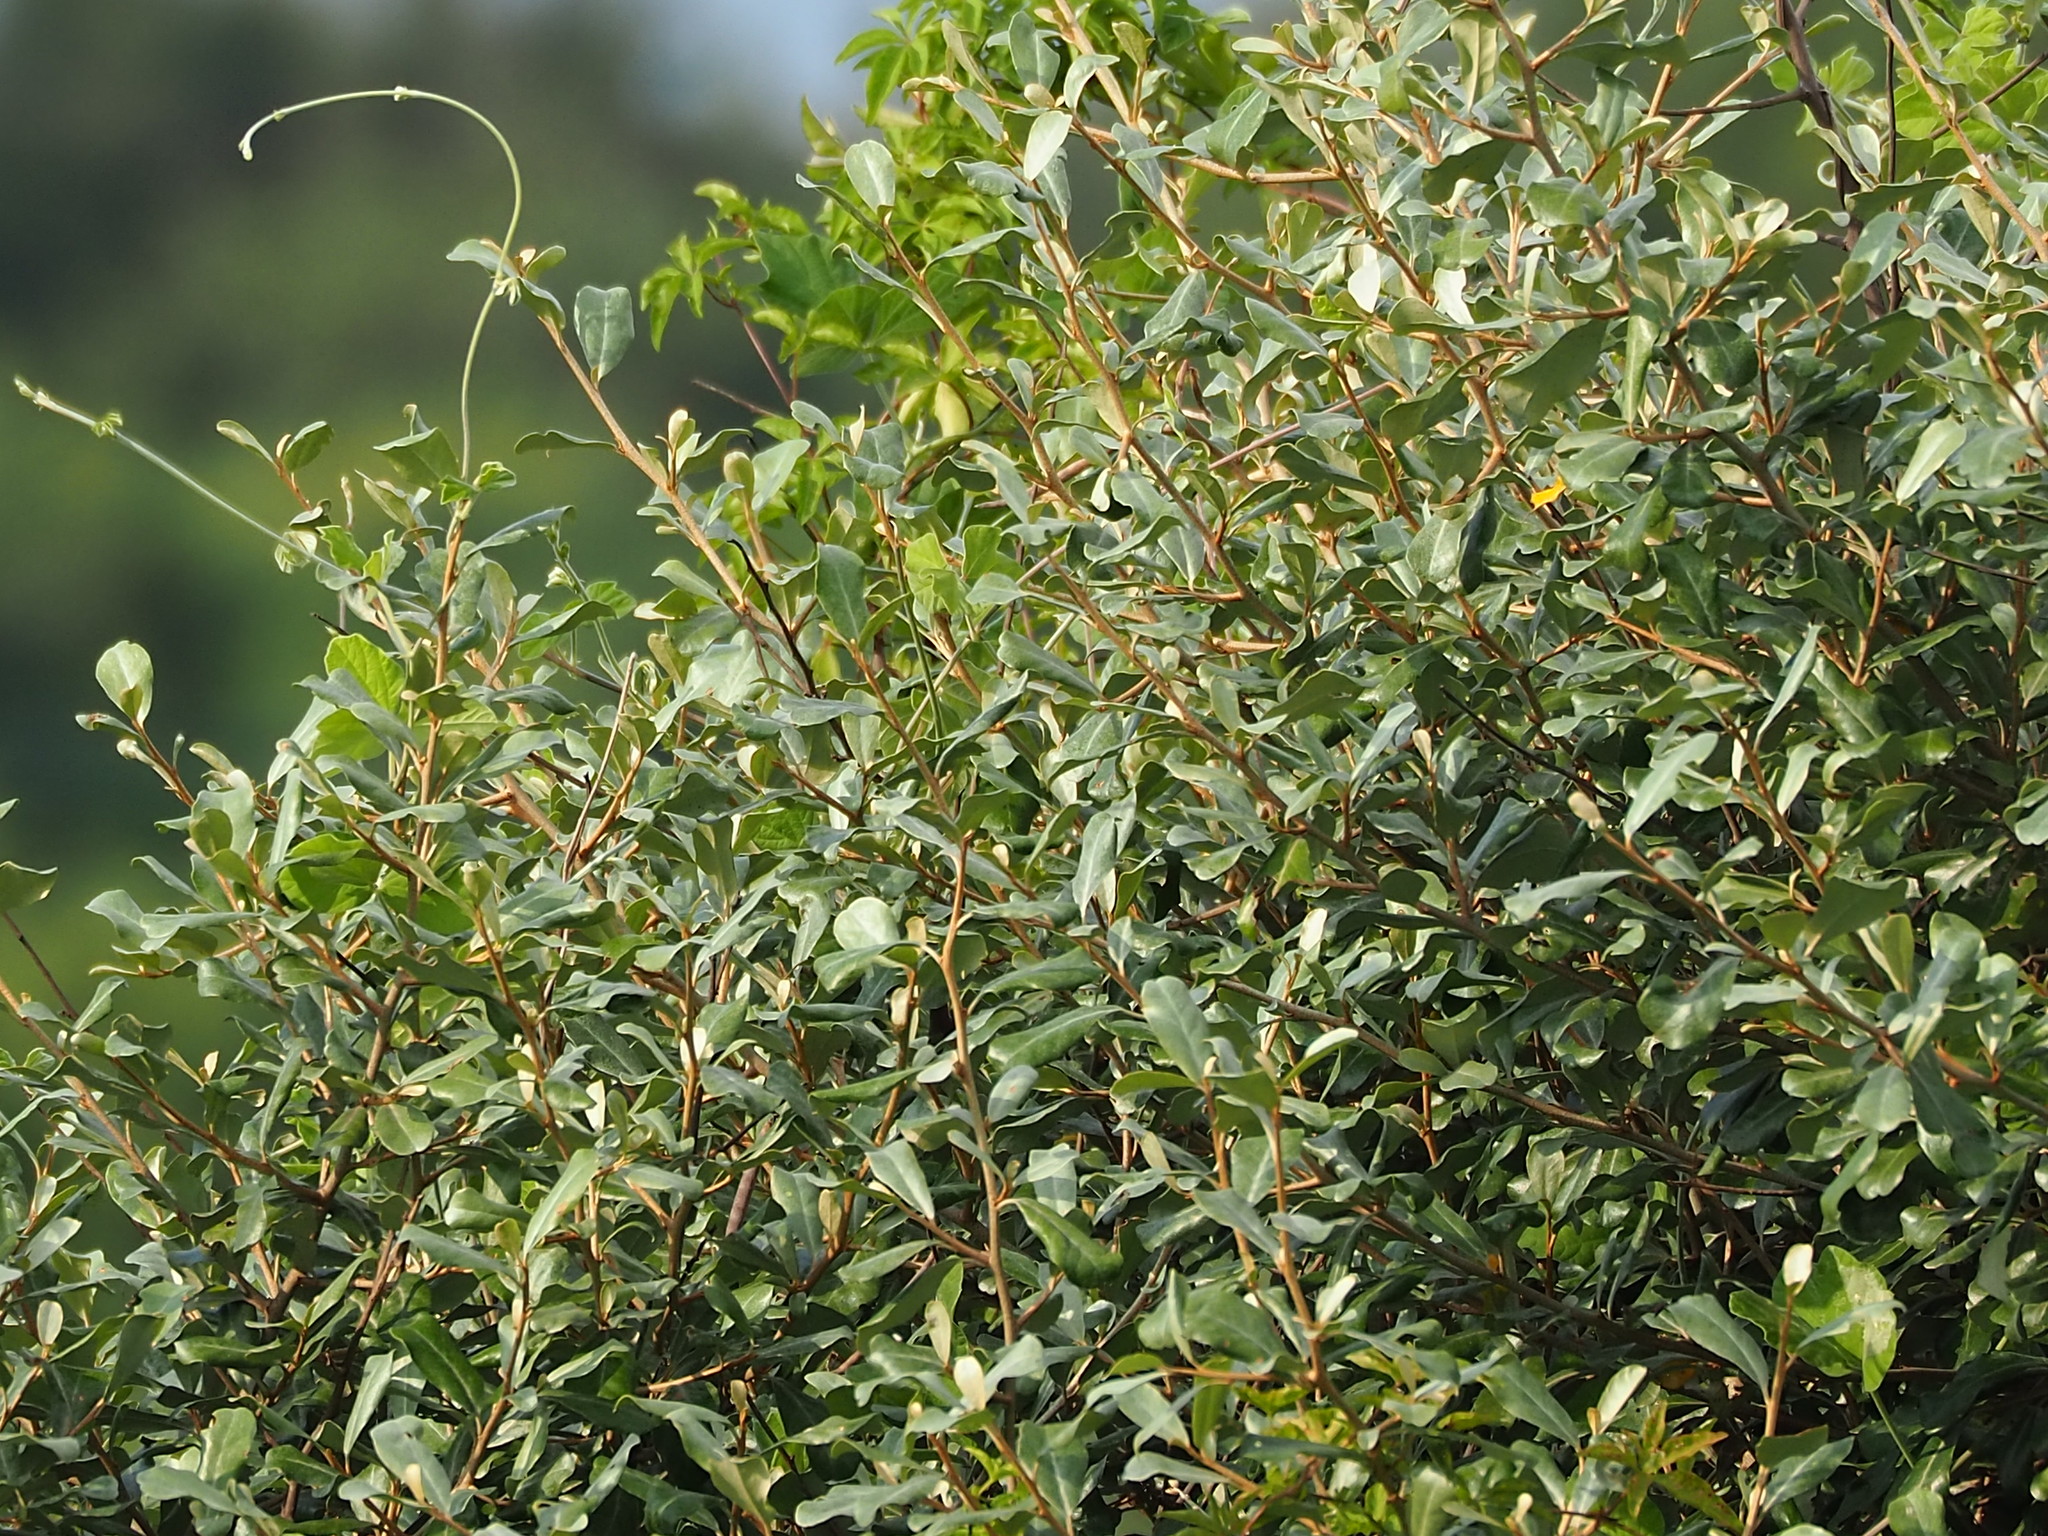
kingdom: Plantae
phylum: Tracheophyta
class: Magnoliopsida
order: Rosales
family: Elaeagnaceae
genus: Elaeagnus
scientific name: Elaeagnus oldhamii
